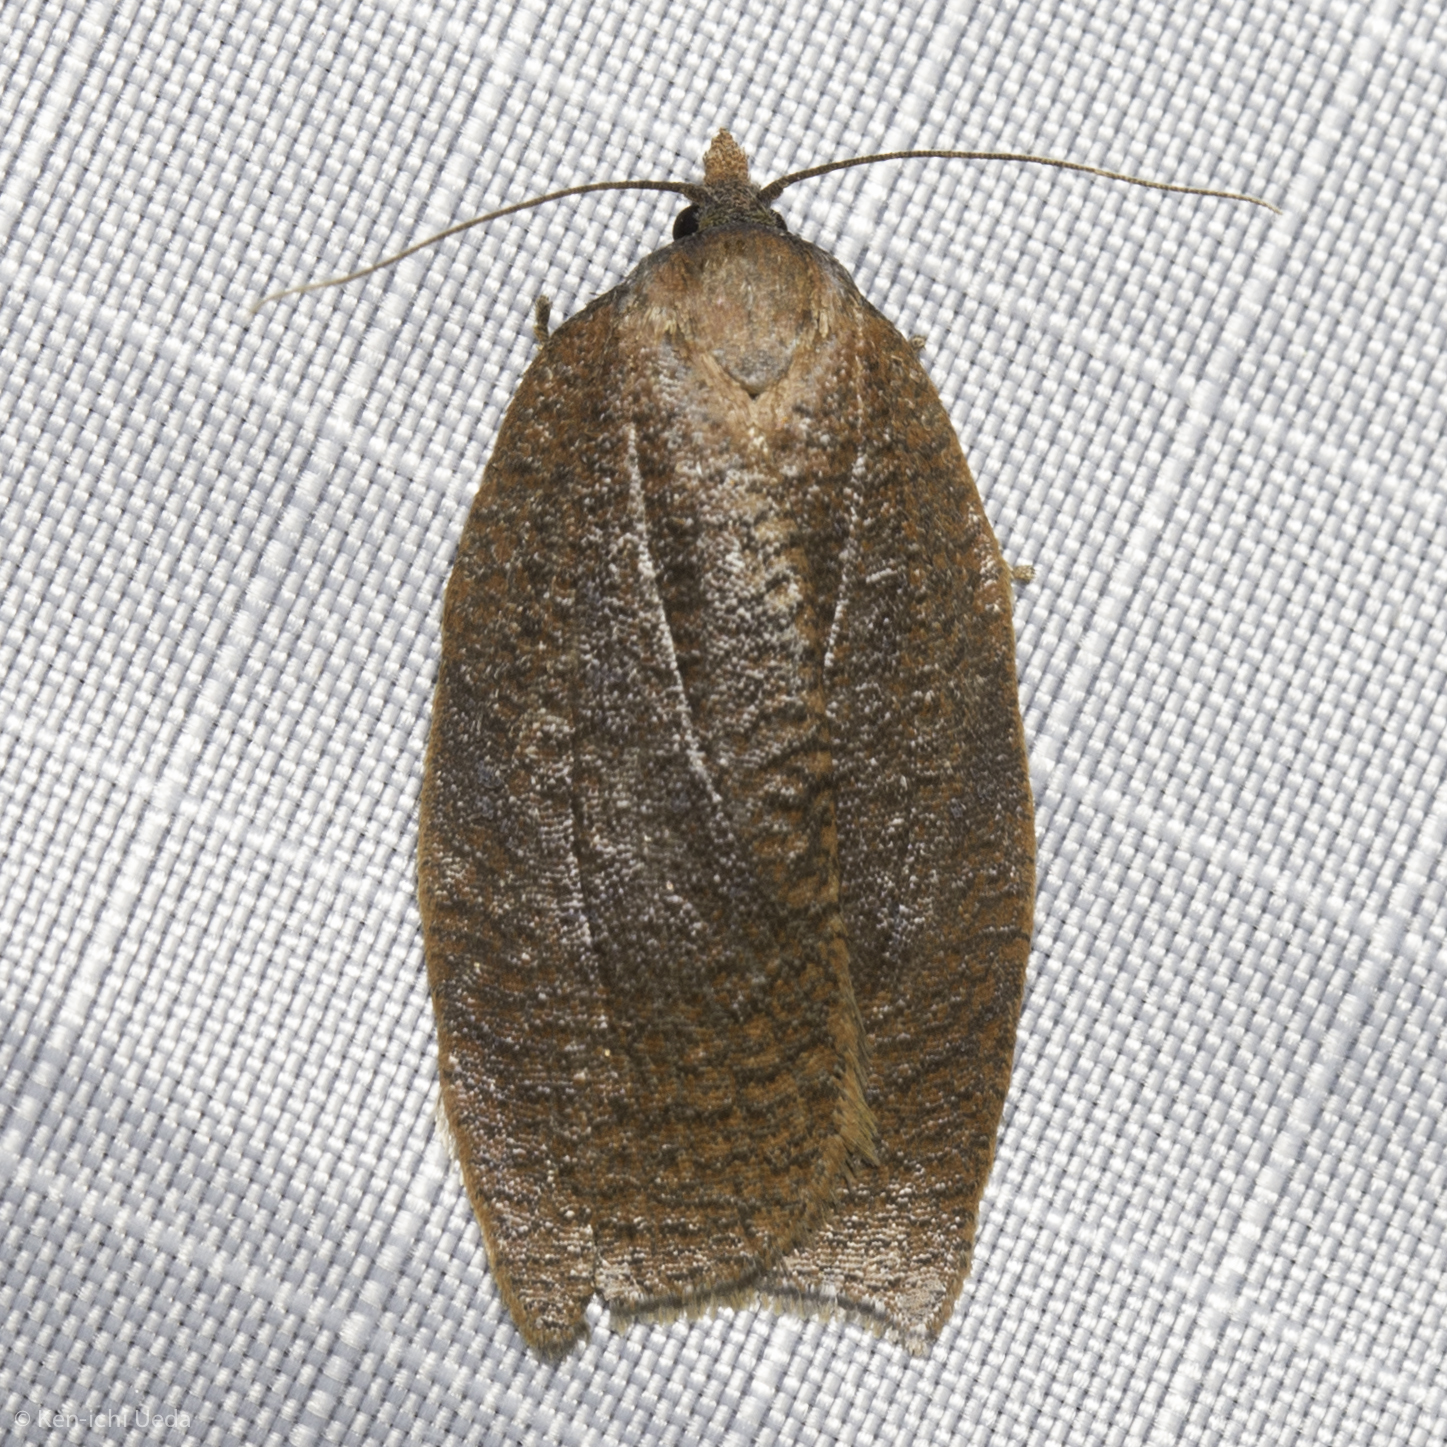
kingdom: Animalia
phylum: Arthropoda
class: Insecta
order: Lepidoptera
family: Tortricidae
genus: Amorbia
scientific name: Amorbia cuneanum
